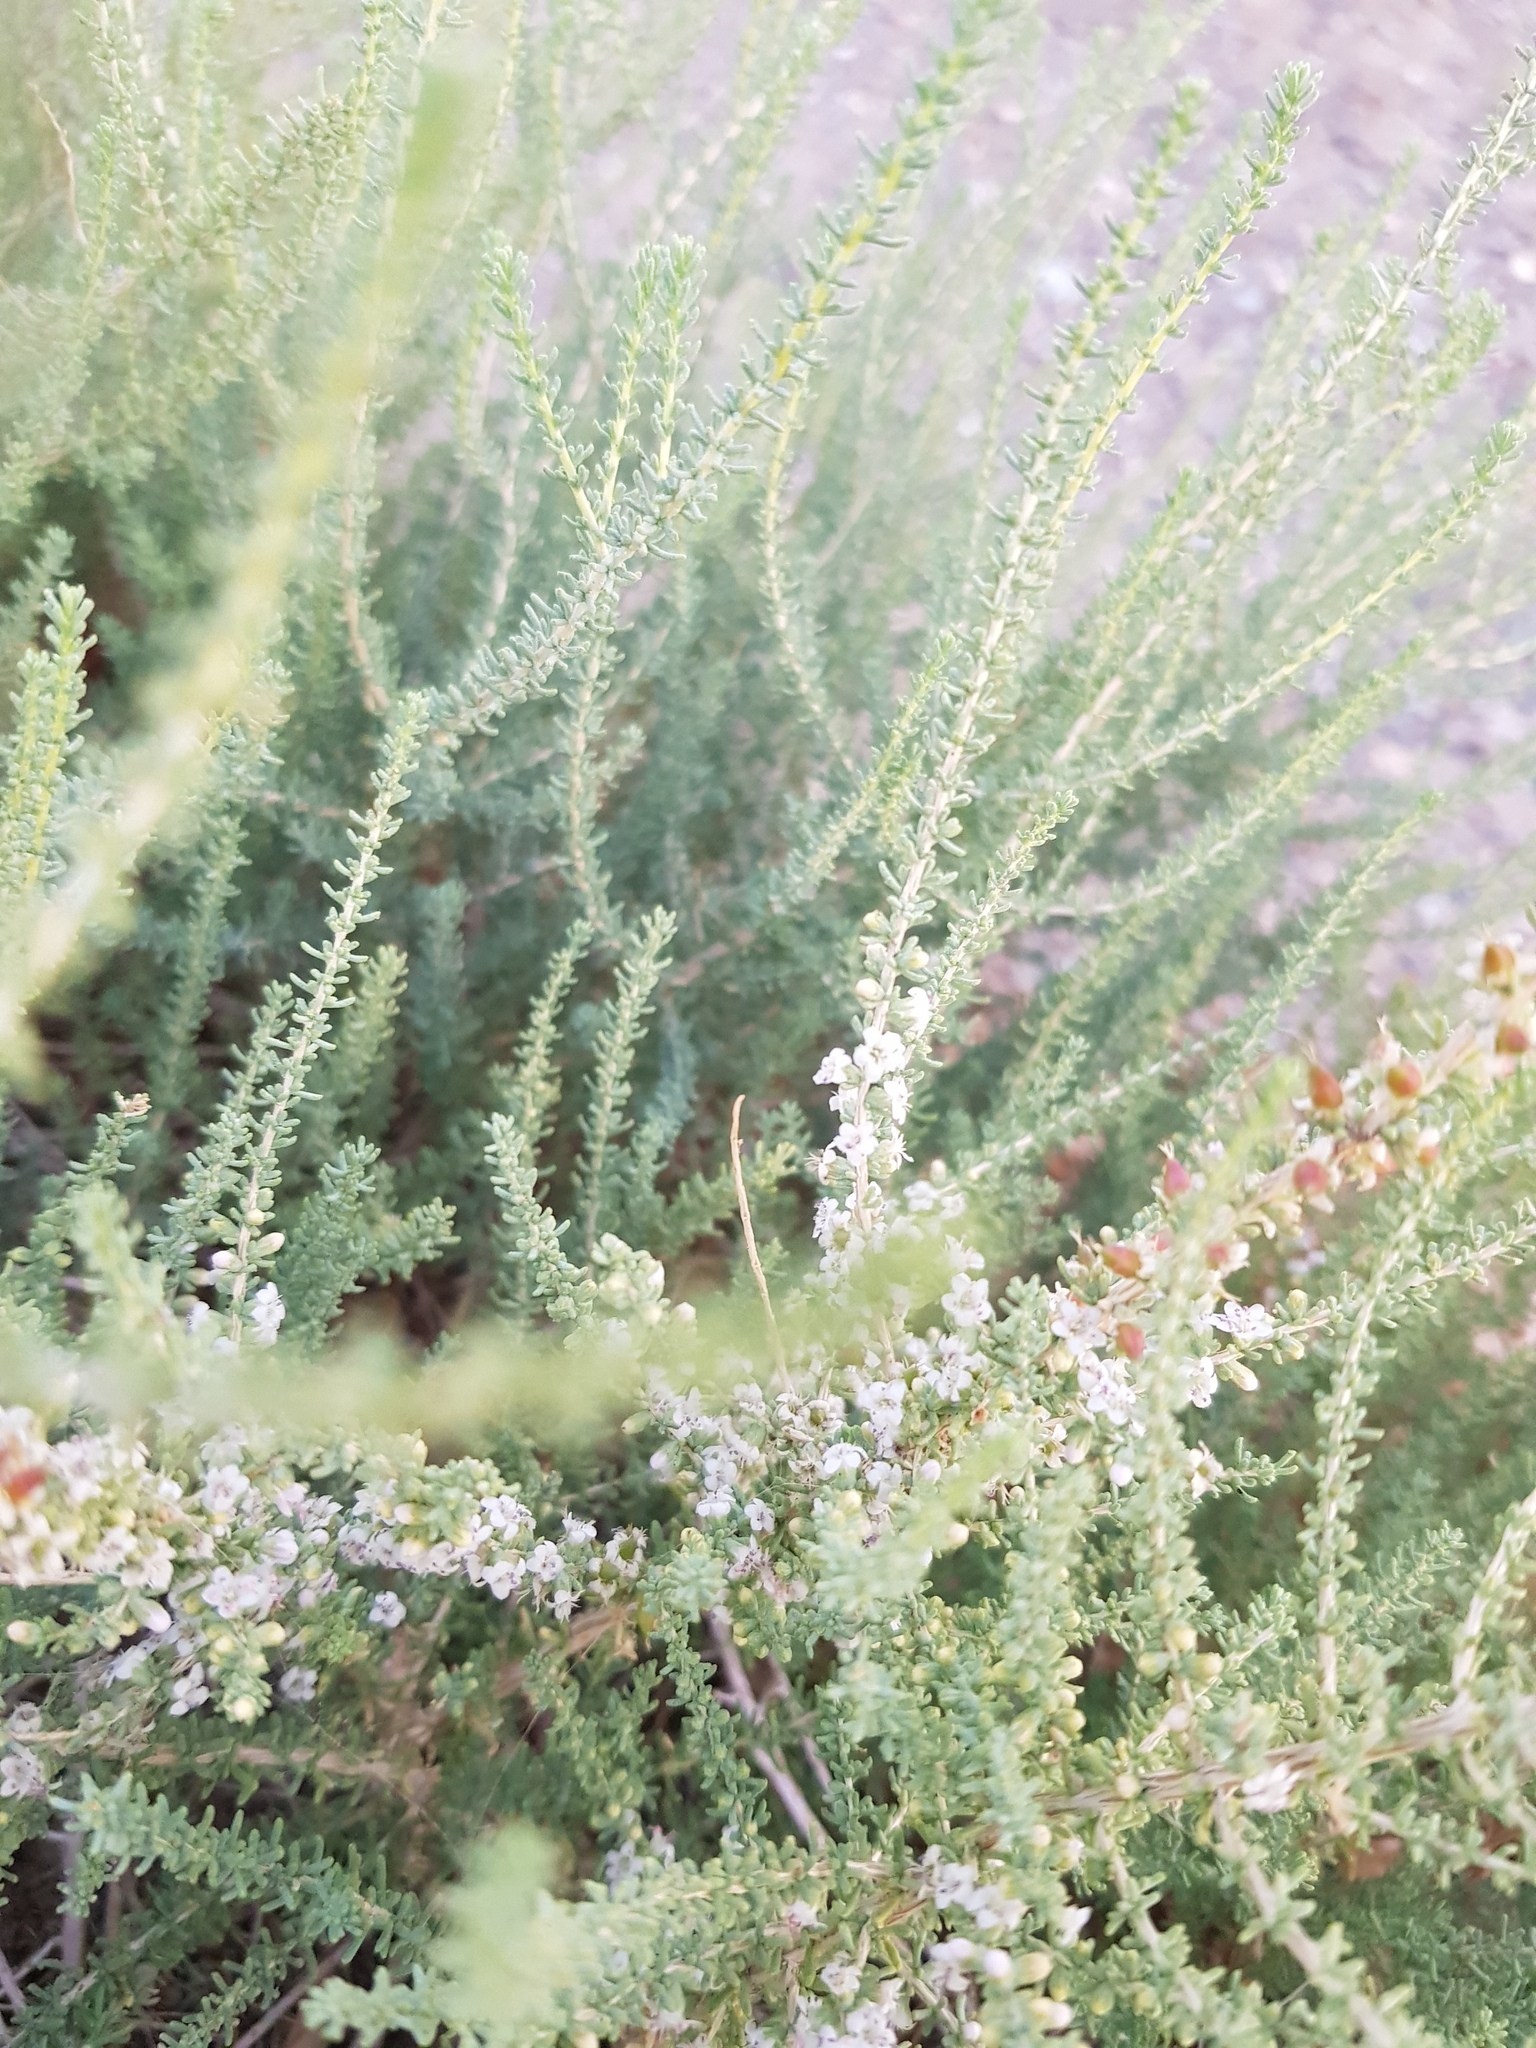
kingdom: Plantae
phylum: Tracheophyta
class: Magnoliopsida
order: Caryophyllales
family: Tamaricaceae
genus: Reaumuria
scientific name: Reaumuria songarica
